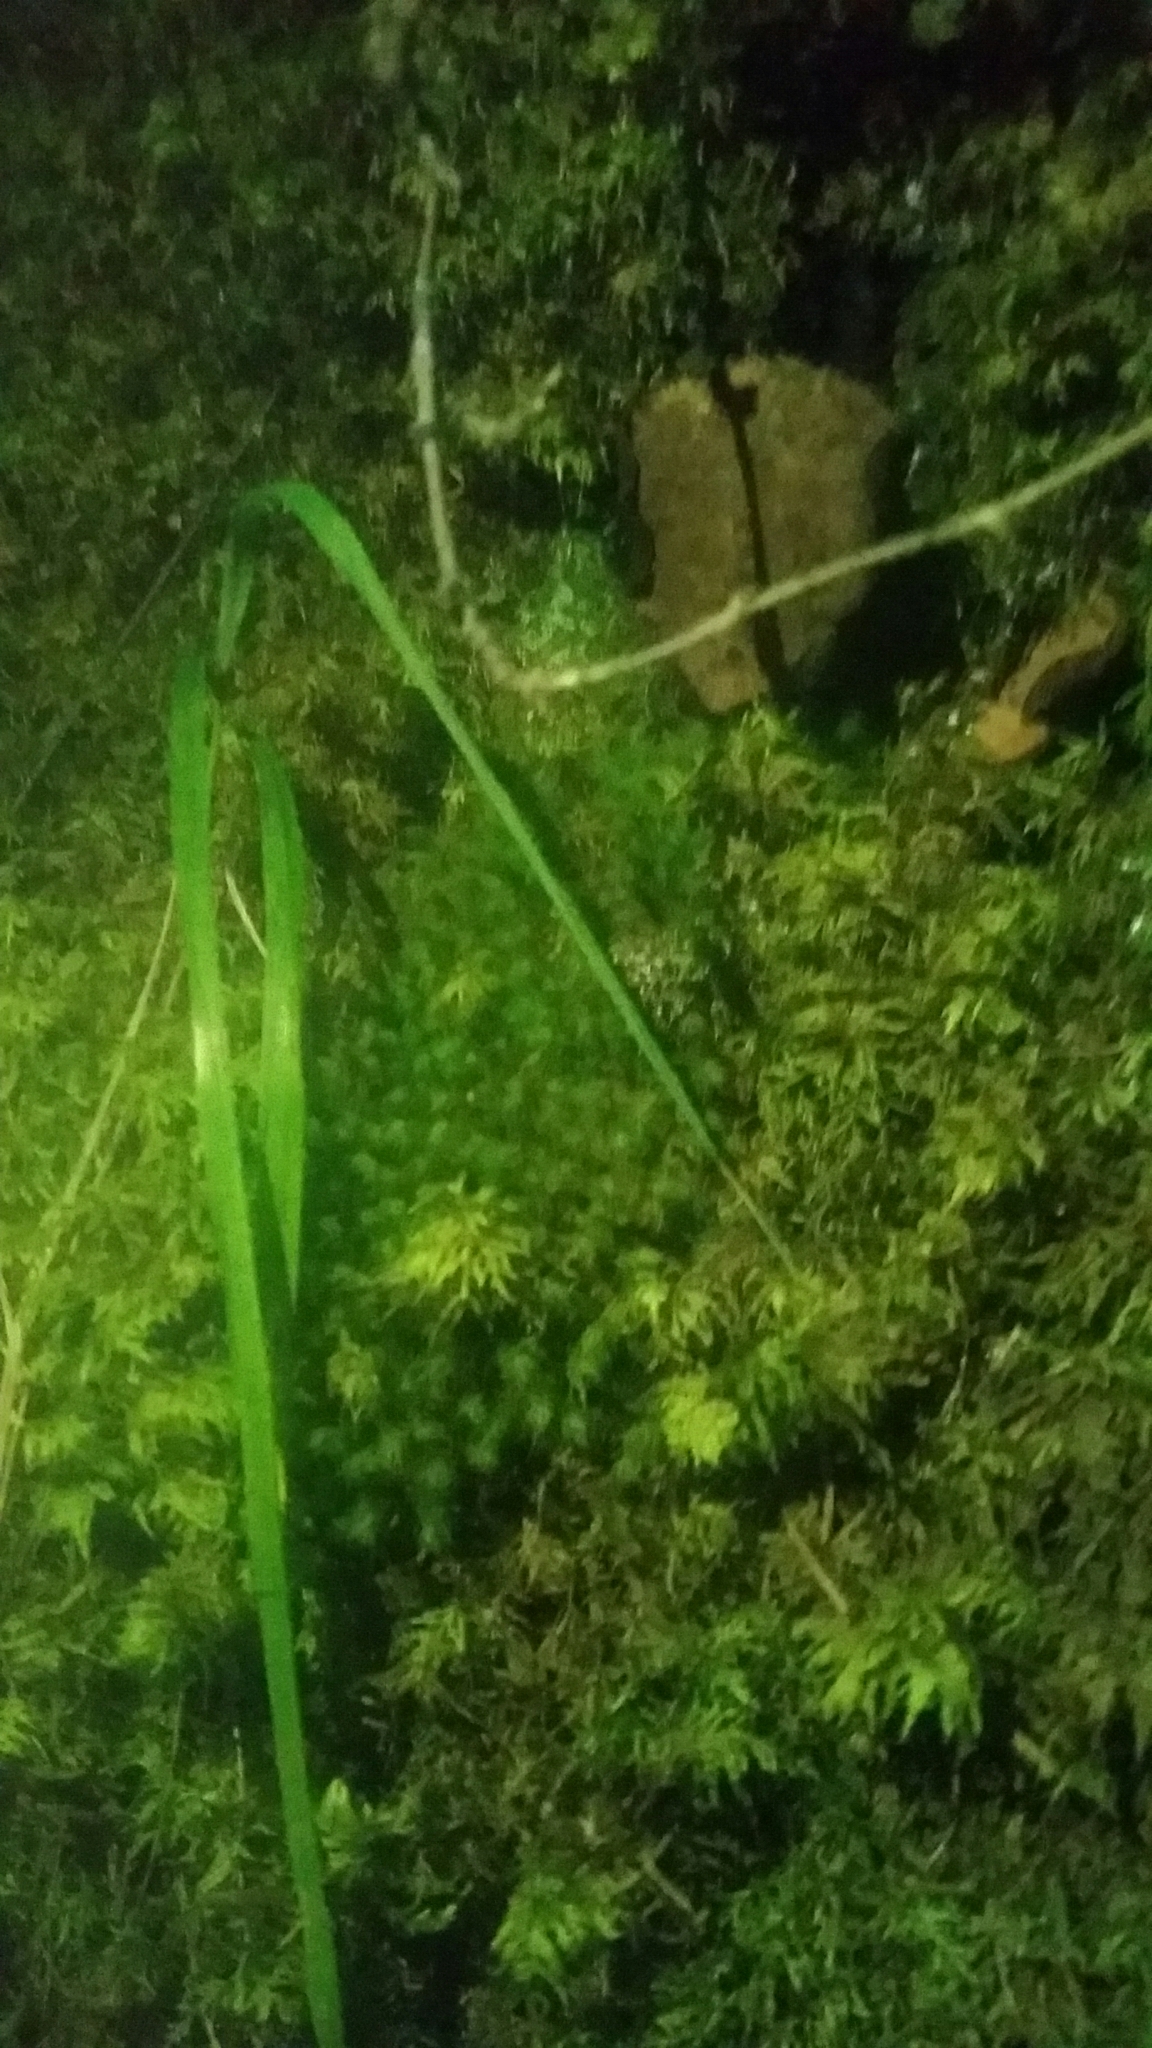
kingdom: Plantae
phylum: Bryophyta
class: Bryopsida
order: Bartramiales
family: Bartramiaceae
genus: Bartramia
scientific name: Bartramia halleriana
